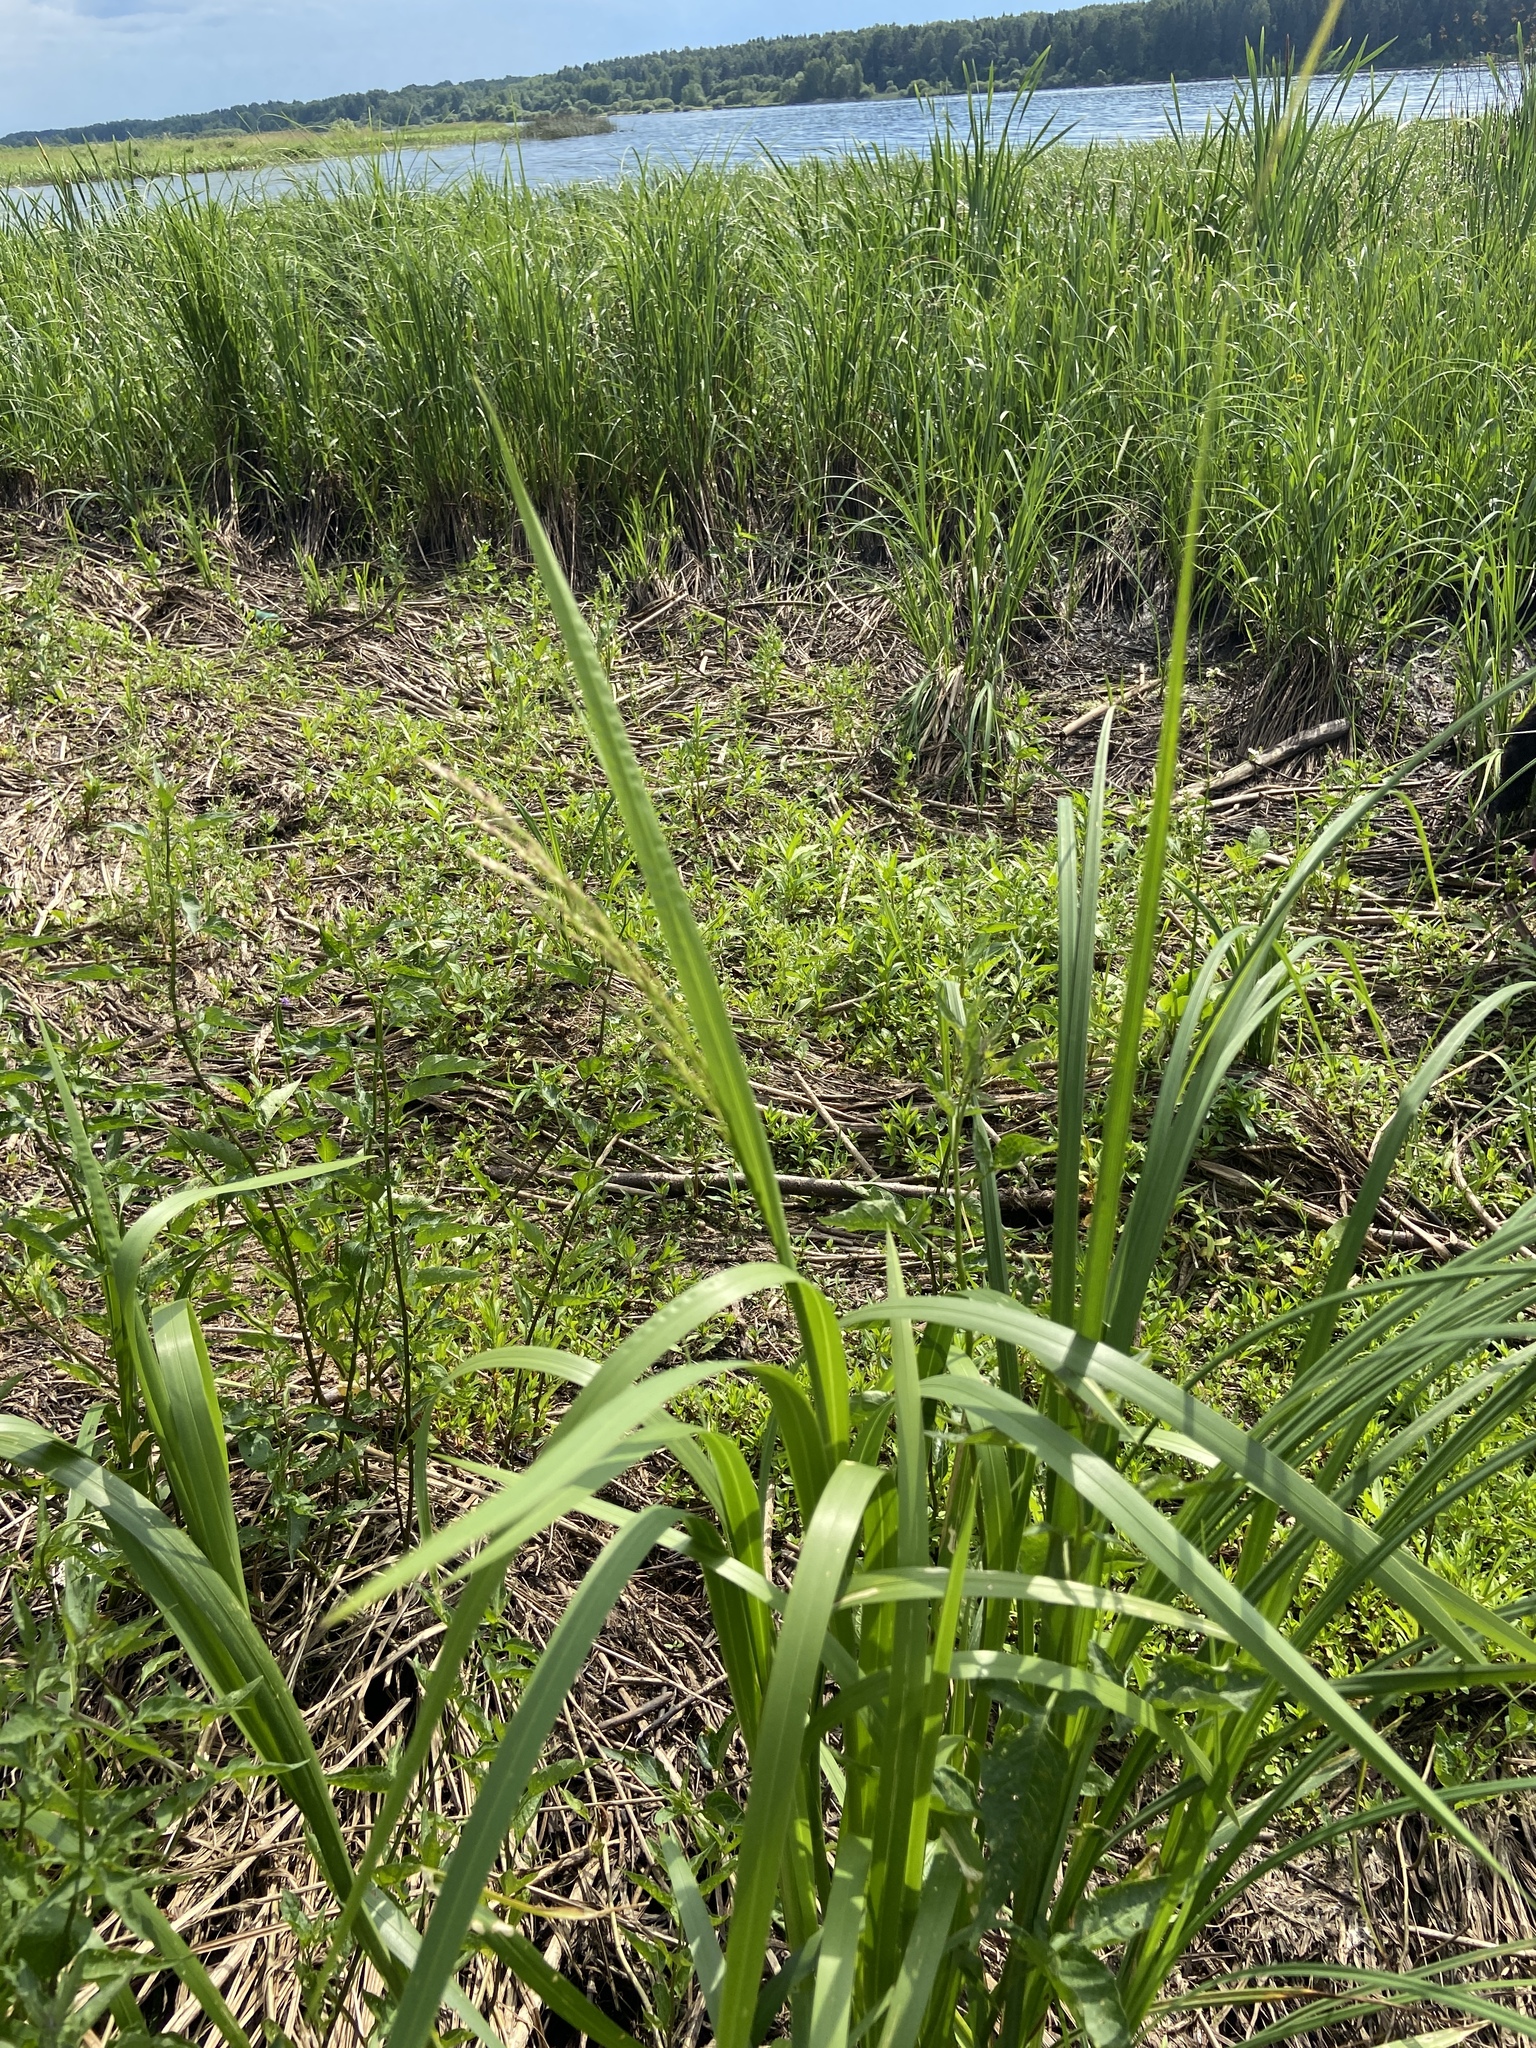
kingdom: Plantae
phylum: Tracheophyta
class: Liliopsida
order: Poales
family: Poaceae
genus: Glyceria
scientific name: Glyceria maxima
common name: Reed mannagrass
